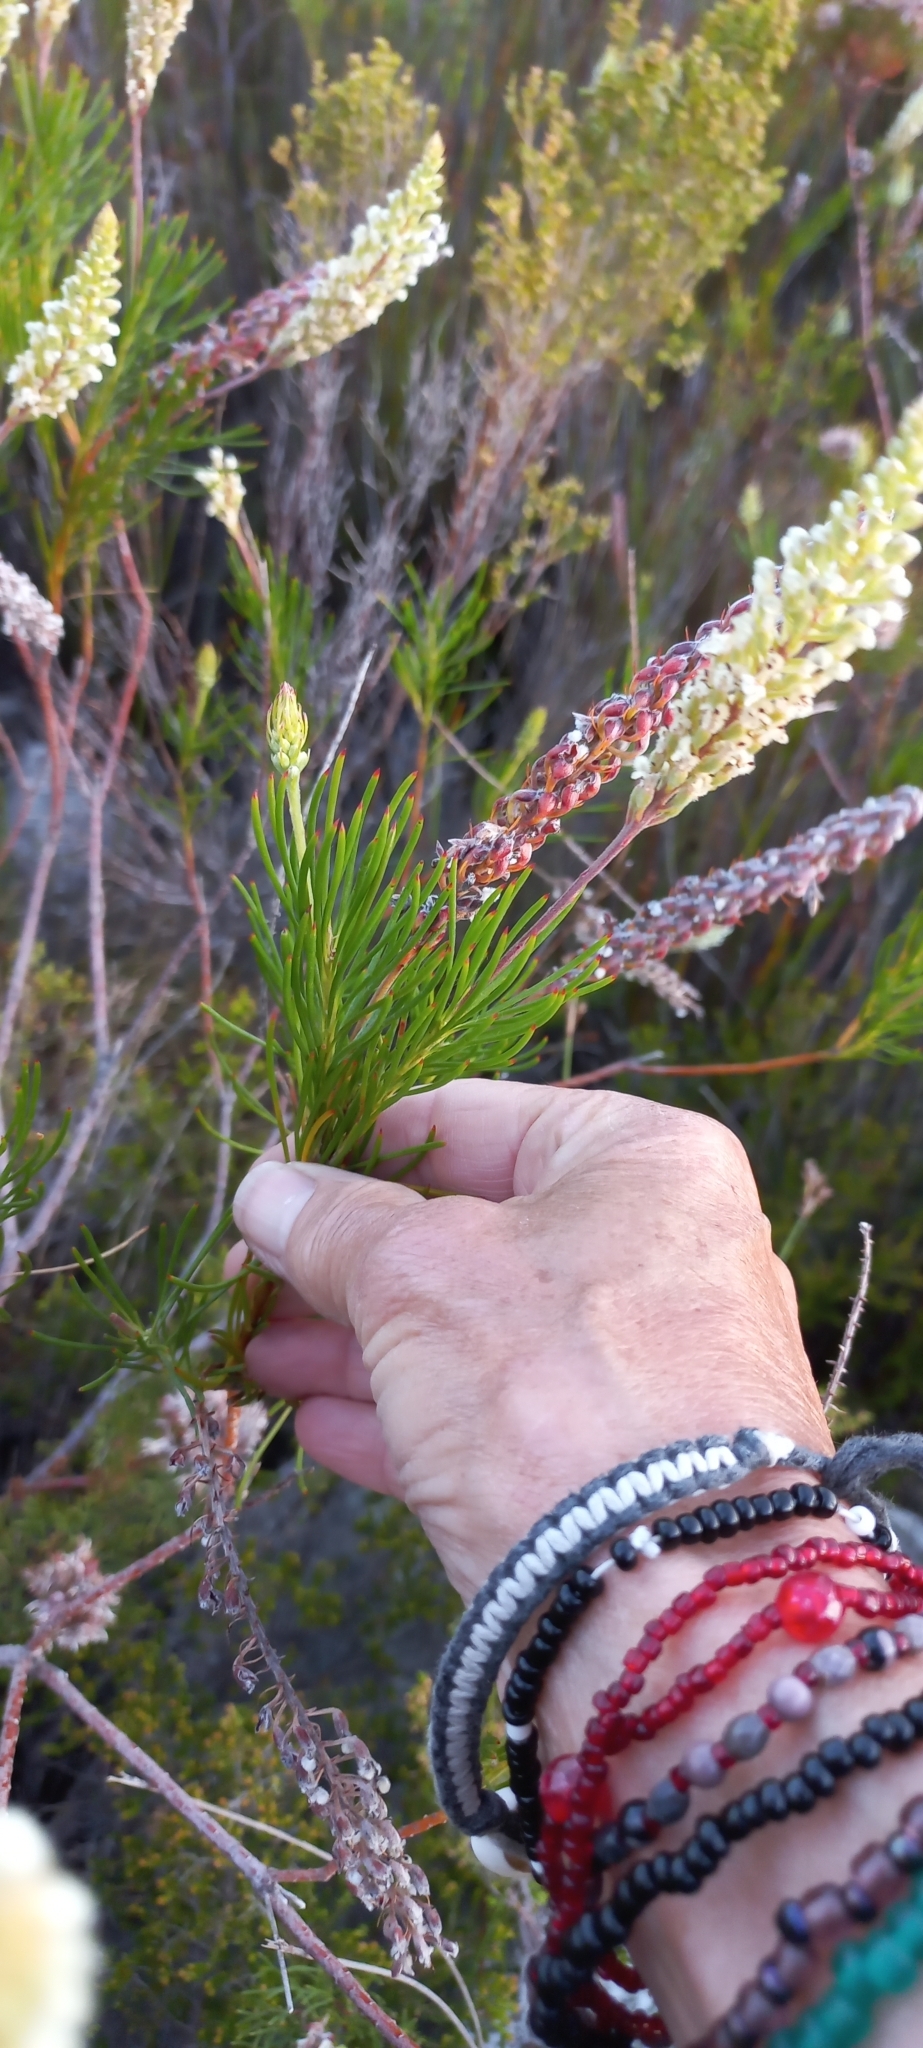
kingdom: Plantae
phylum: Tracheophyta
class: Magnoliopsida
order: Proteales
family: Proteaceae
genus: Spatalla
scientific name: Spatalla curvifolia
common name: White-stalked spoon
